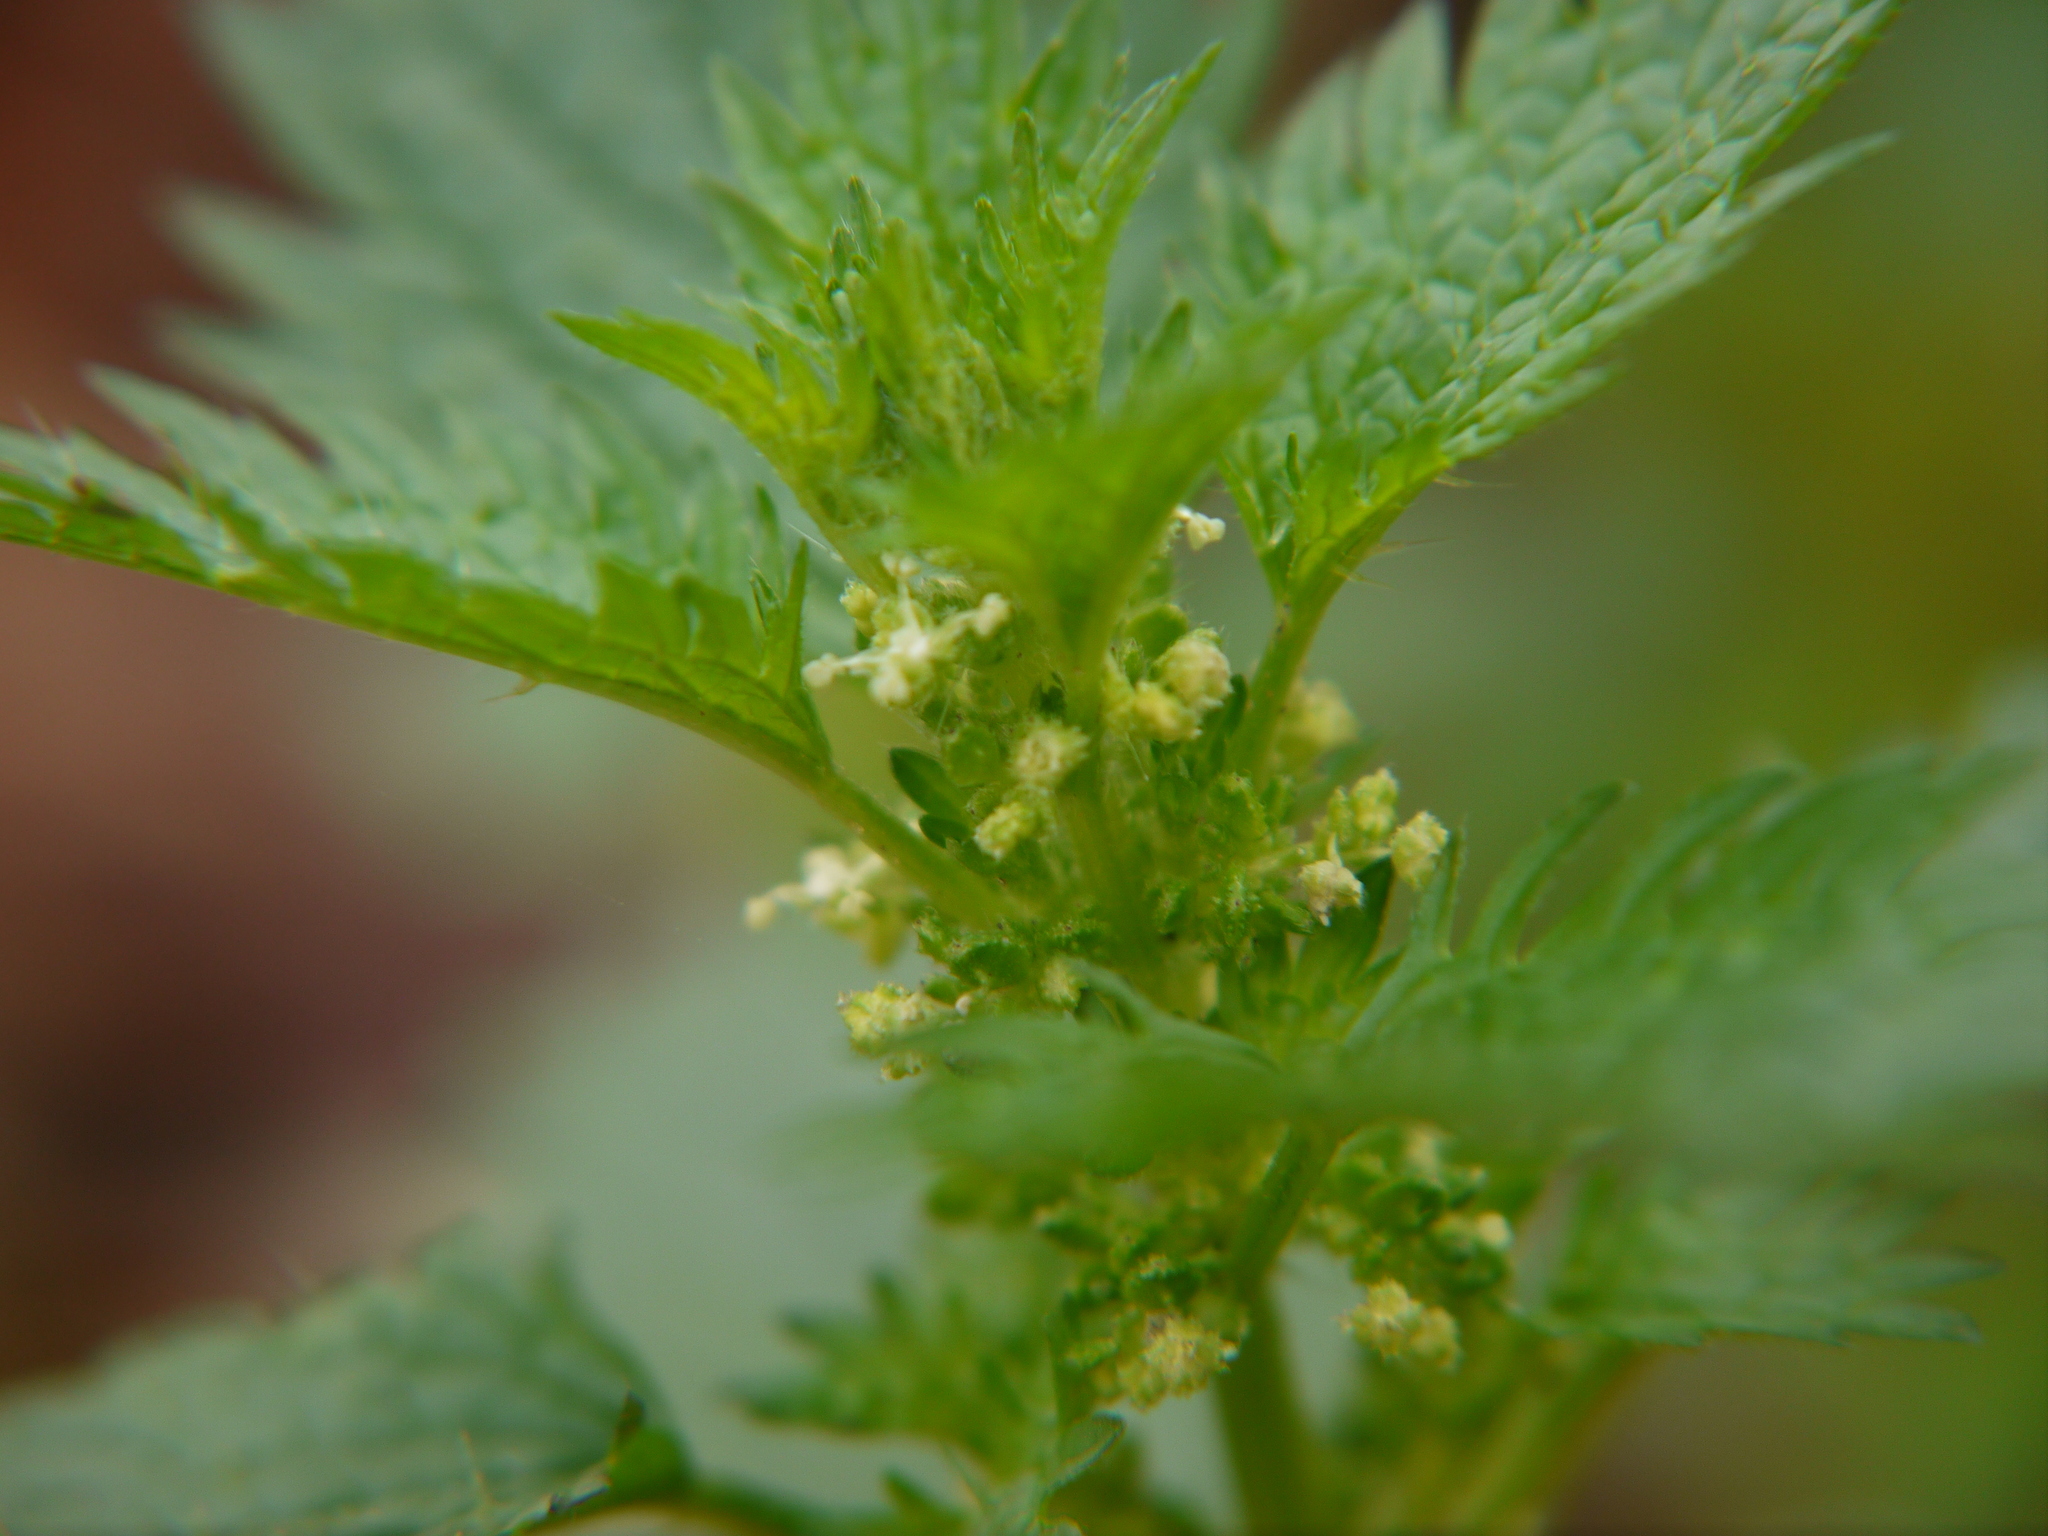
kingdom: Plantae
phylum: Tracheophyta
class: Magnoliopsida
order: Rosales
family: Urticaceae
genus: Urtica
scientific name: Urtica urens
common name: Dwarf nettle
